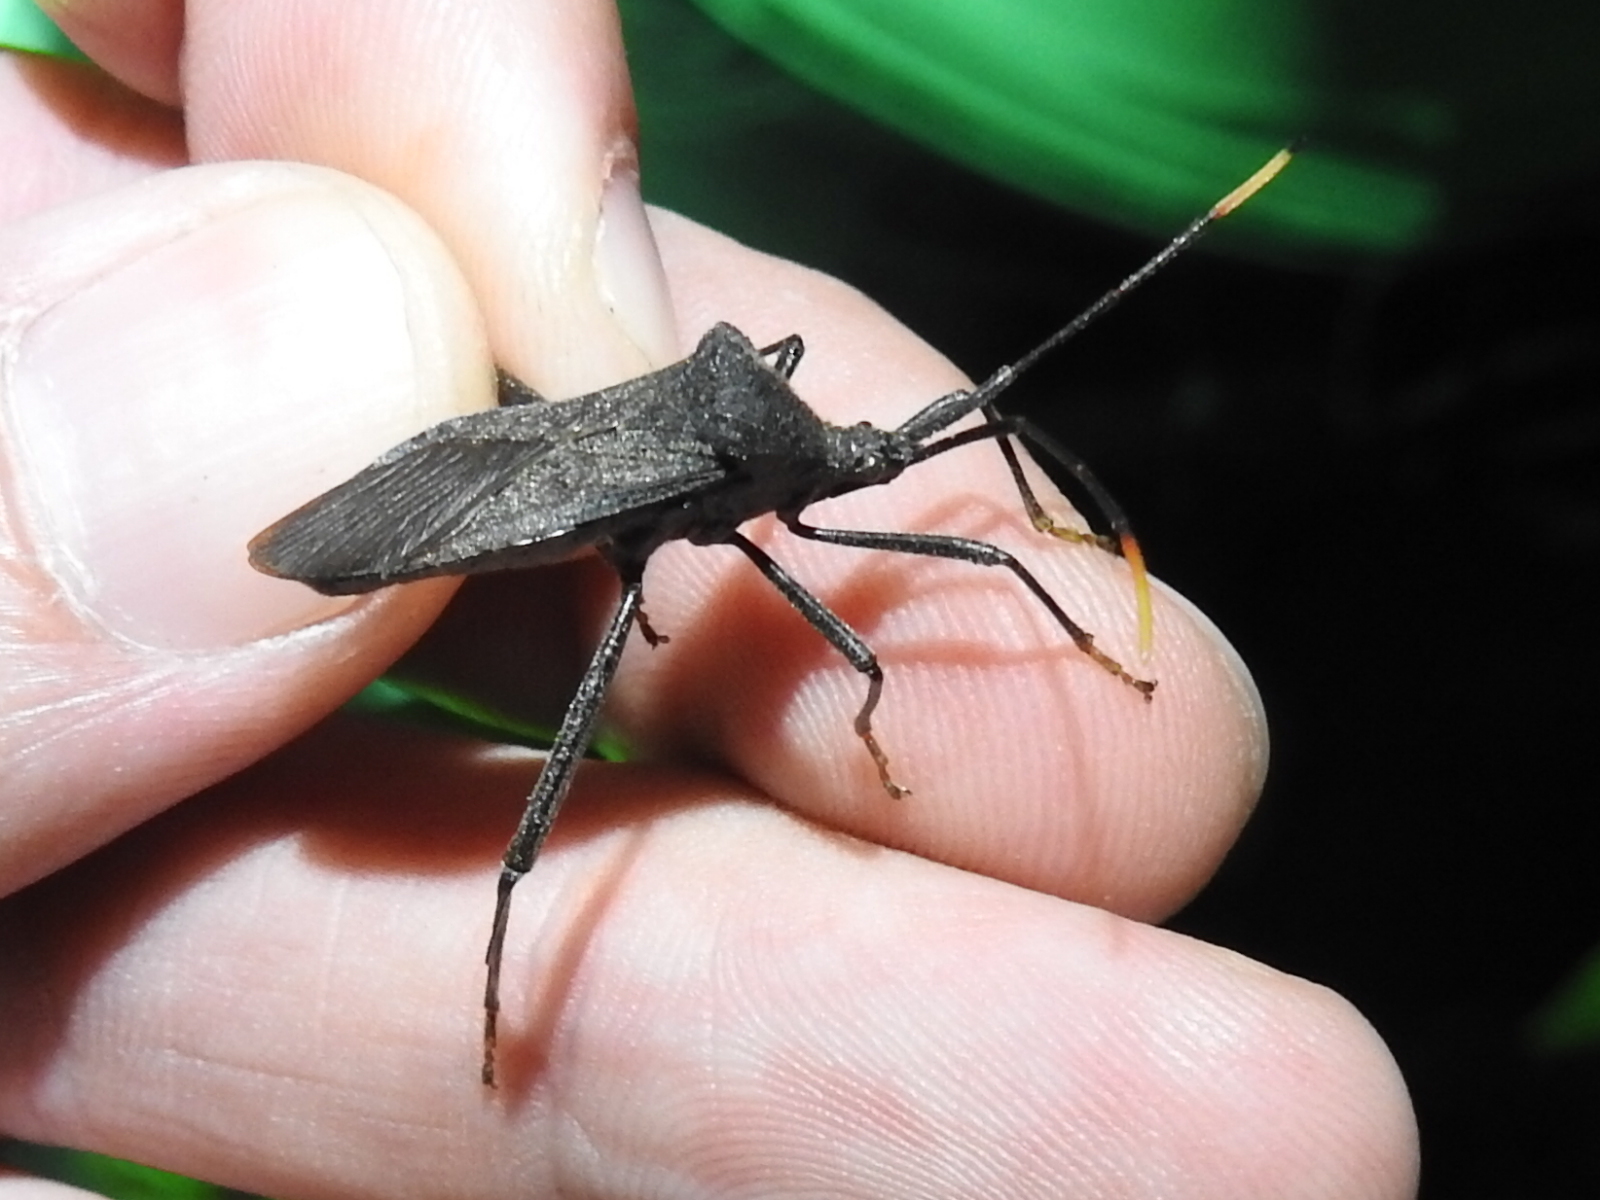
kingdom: Animalia
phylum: Arthropoda
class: Insecta
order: Hemiptera
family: Coreidae
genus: Acanthocephala
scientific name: Acanthocephala terminalis
